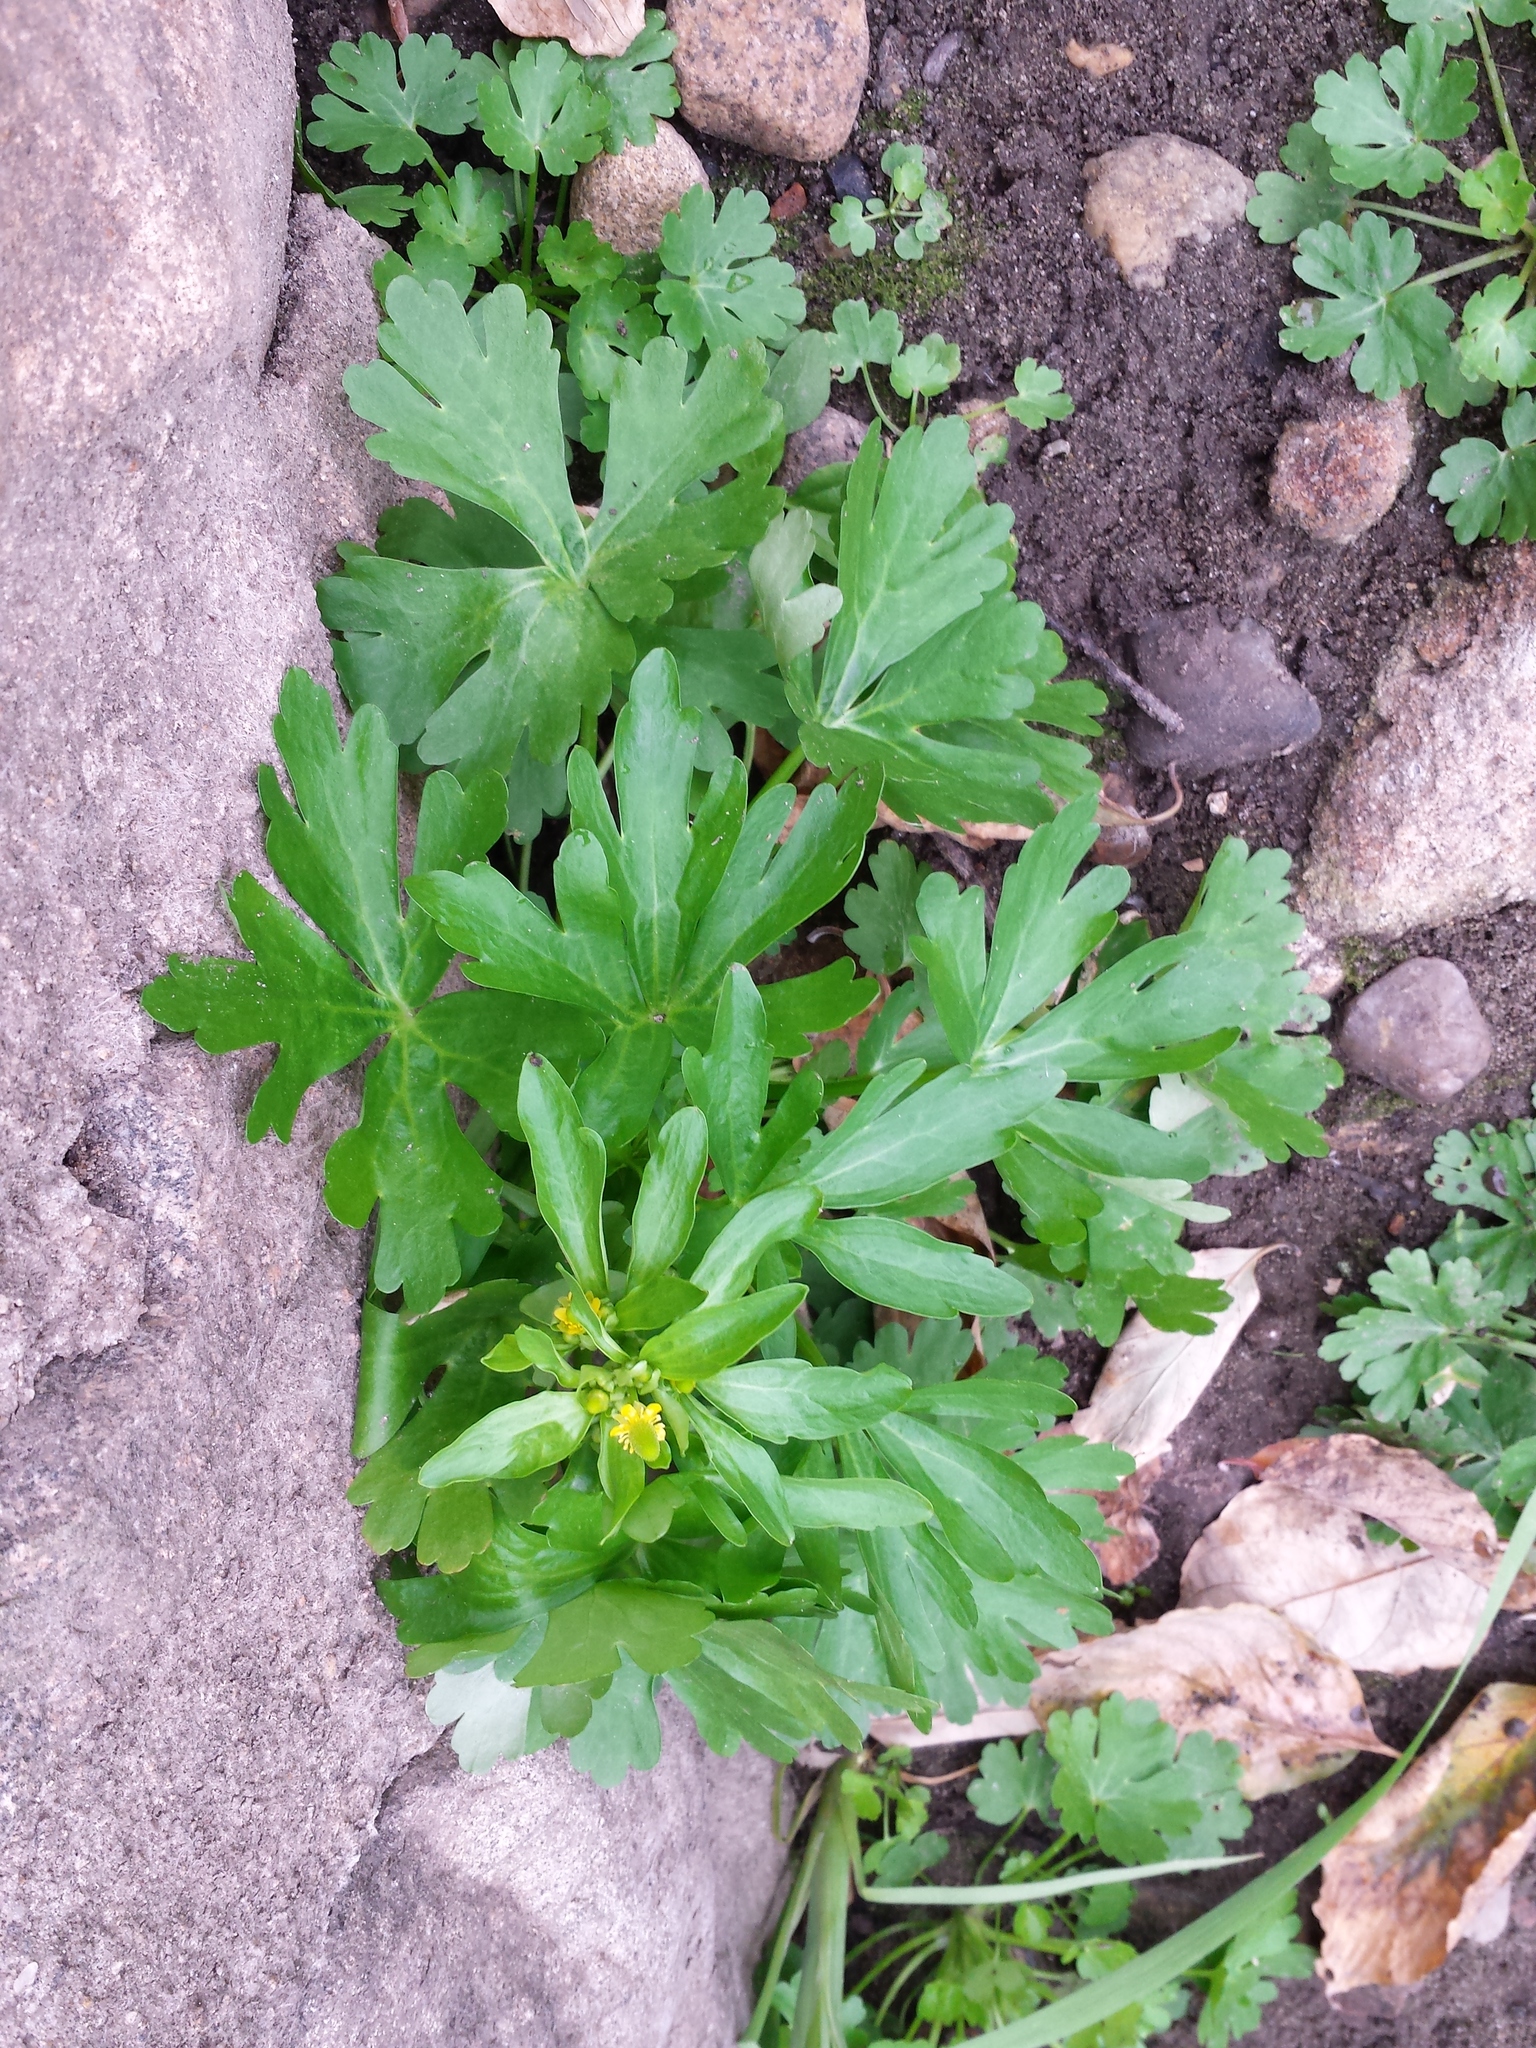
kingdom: Plantae
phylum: Tracheophyta
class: Magnoliopsida
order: Ranunculales
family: Ranunculaceae
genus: Ranunculus
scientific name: Ranunculus sceleratus
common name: Celery-leaved buttercup
